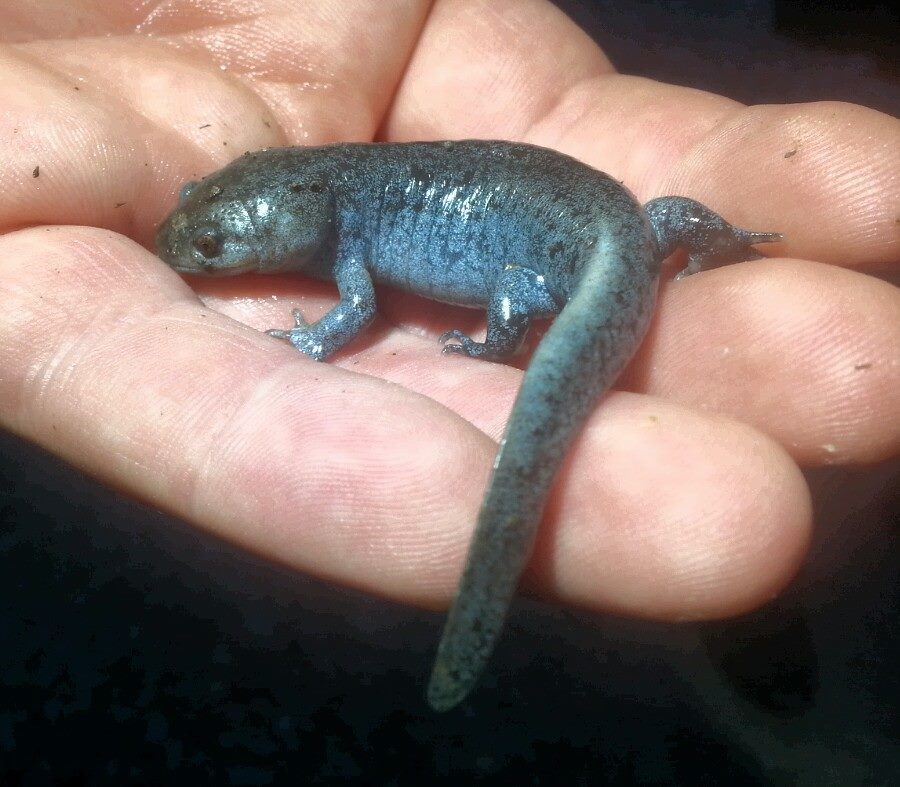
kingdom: Animalia
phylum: Chordata
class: Amphibia
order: Caudata
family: Ambystomatidae
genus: Ambystoma
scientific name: Ambystoma talpoideum
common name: Mole salamander
